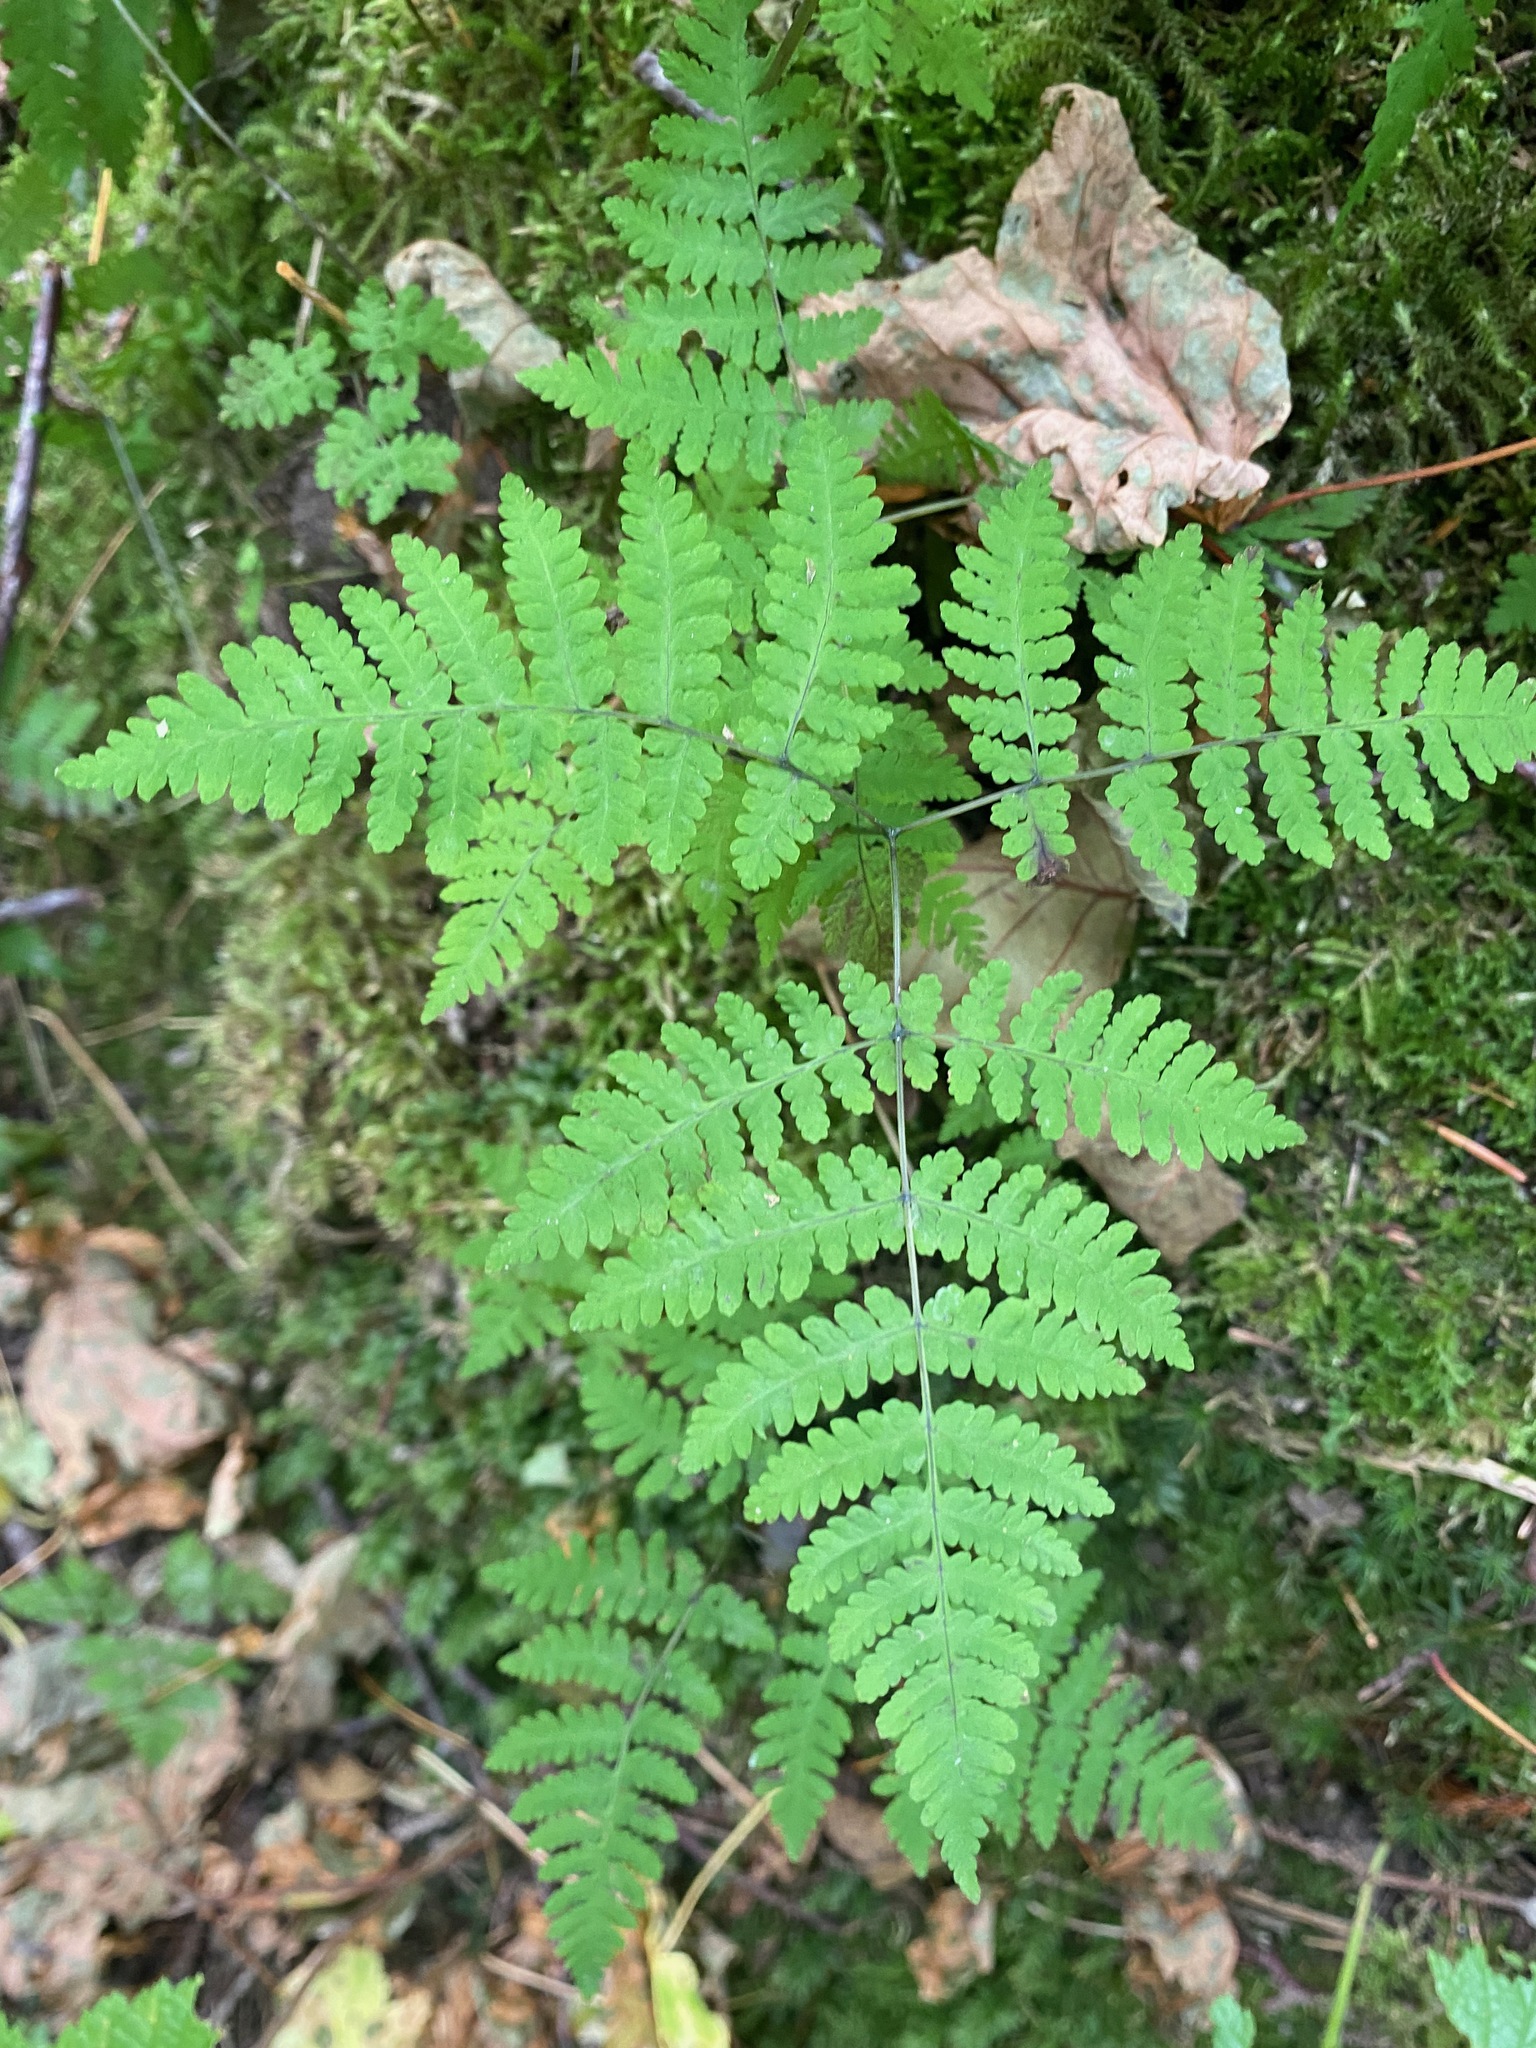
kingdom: Plantae
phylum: Tracheophyta
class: Polypodiopsida
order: Polypodiales
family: Cystopteridaceae
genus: Gymnocarpium
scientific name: Gymnocarpium dryopteris
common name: Oak fern
